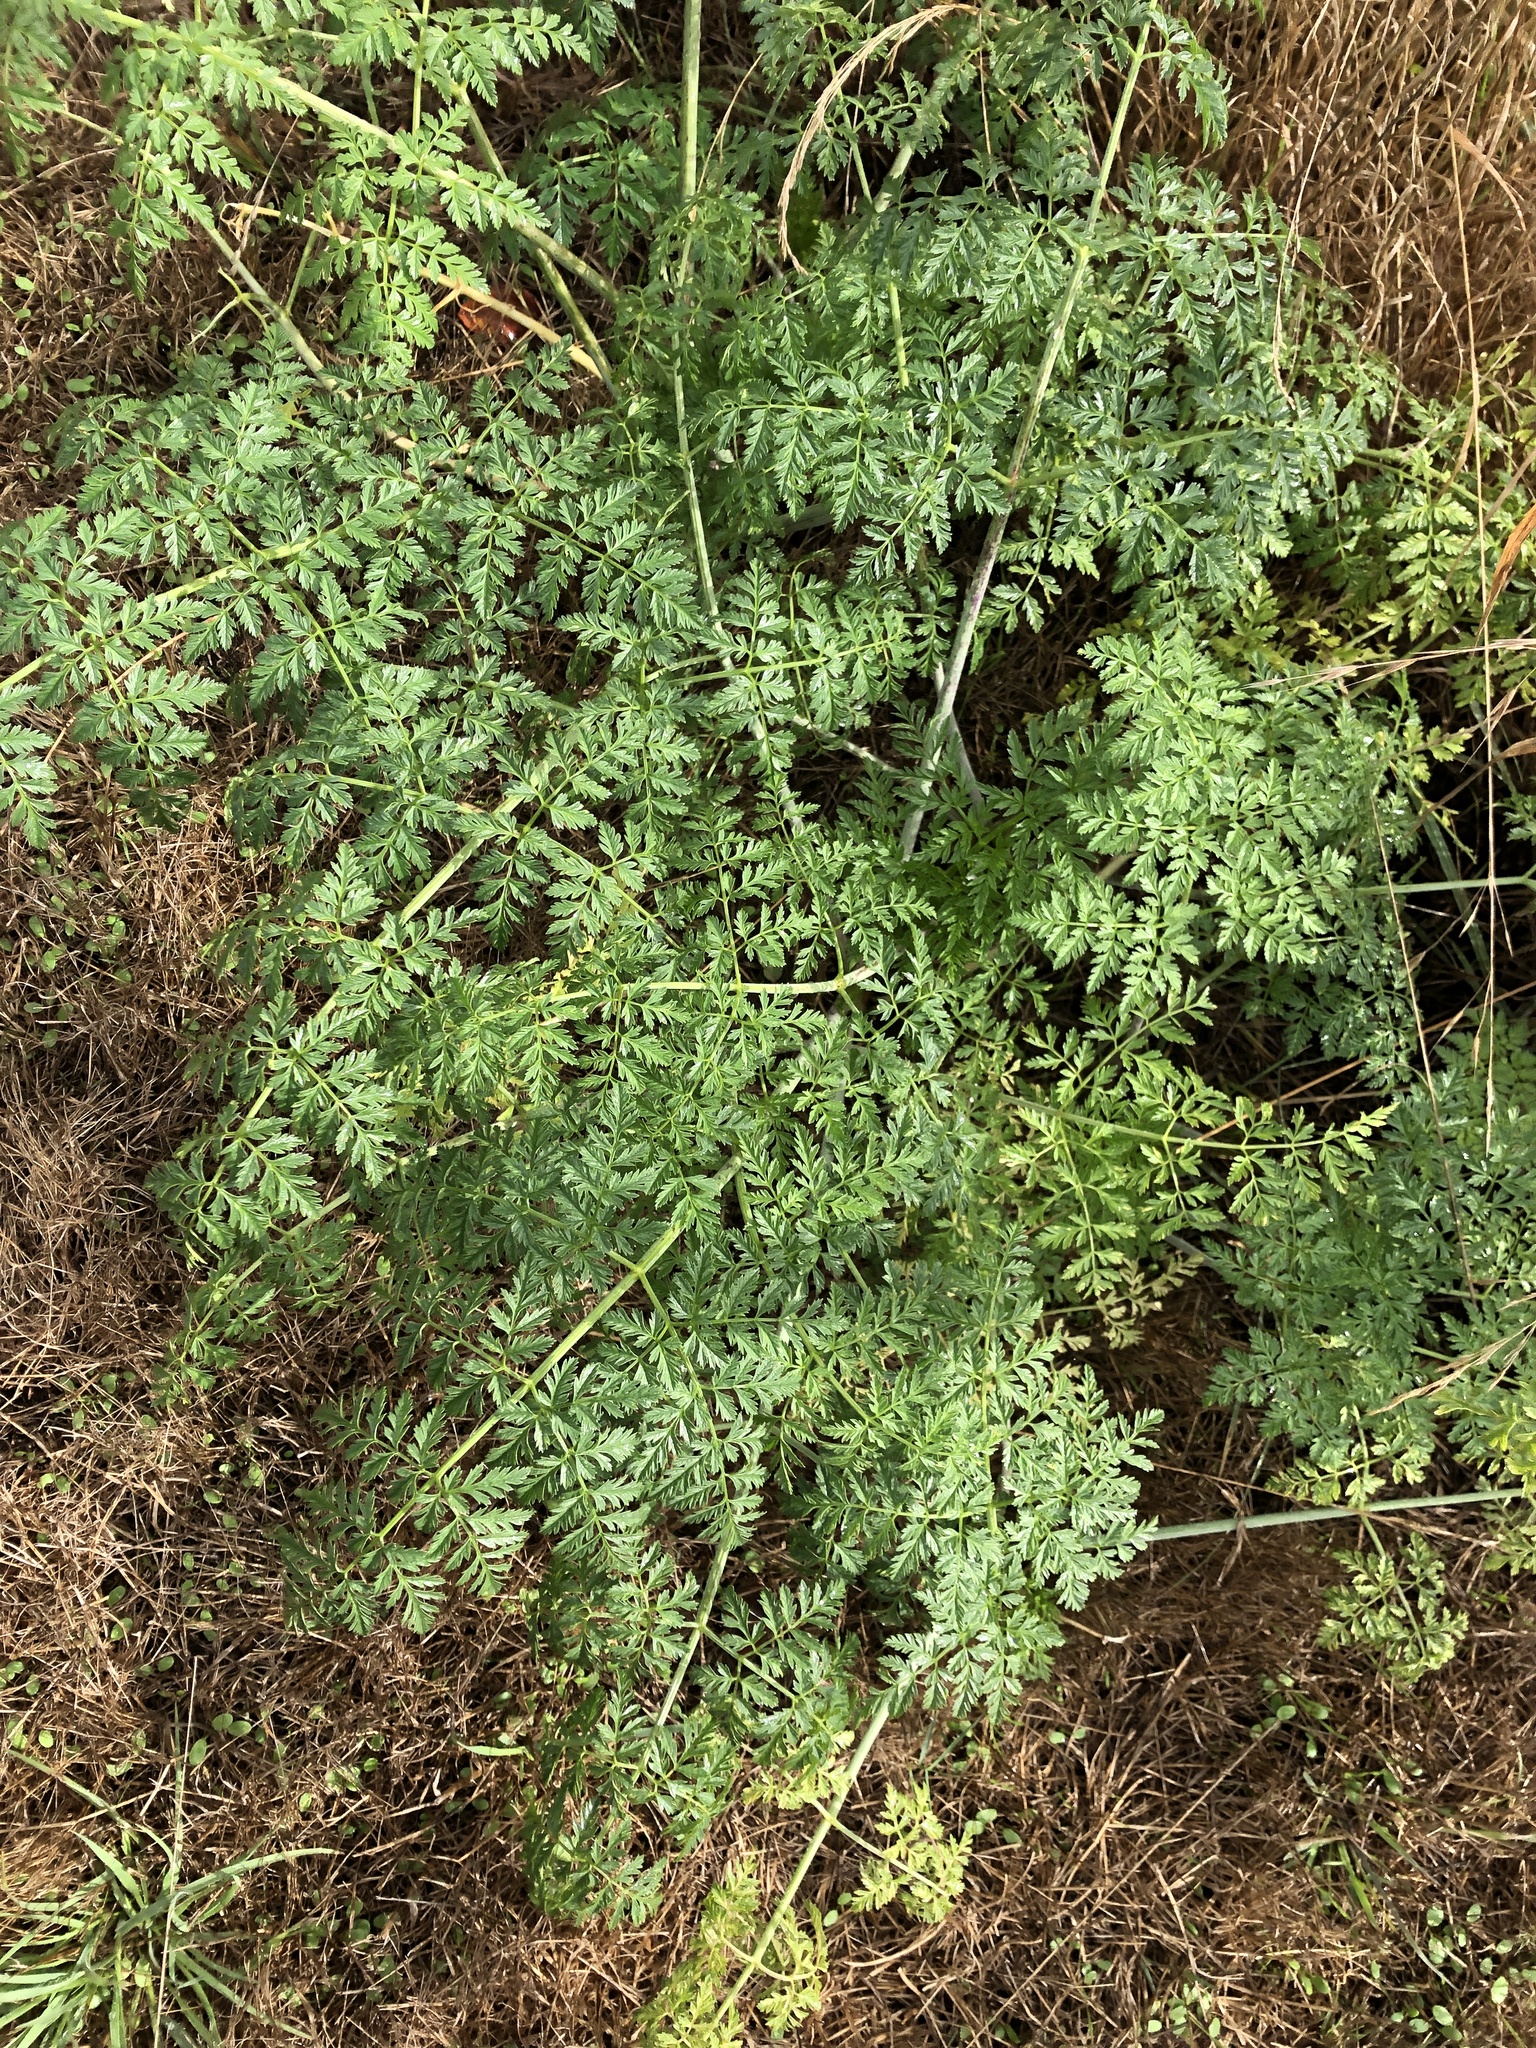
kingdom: Plantae
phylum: Tracheophyta
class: Magnoliopsida
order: Apiales
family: Apiaceae
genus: Conium
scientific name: Conium maculatum
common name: Hemlock
